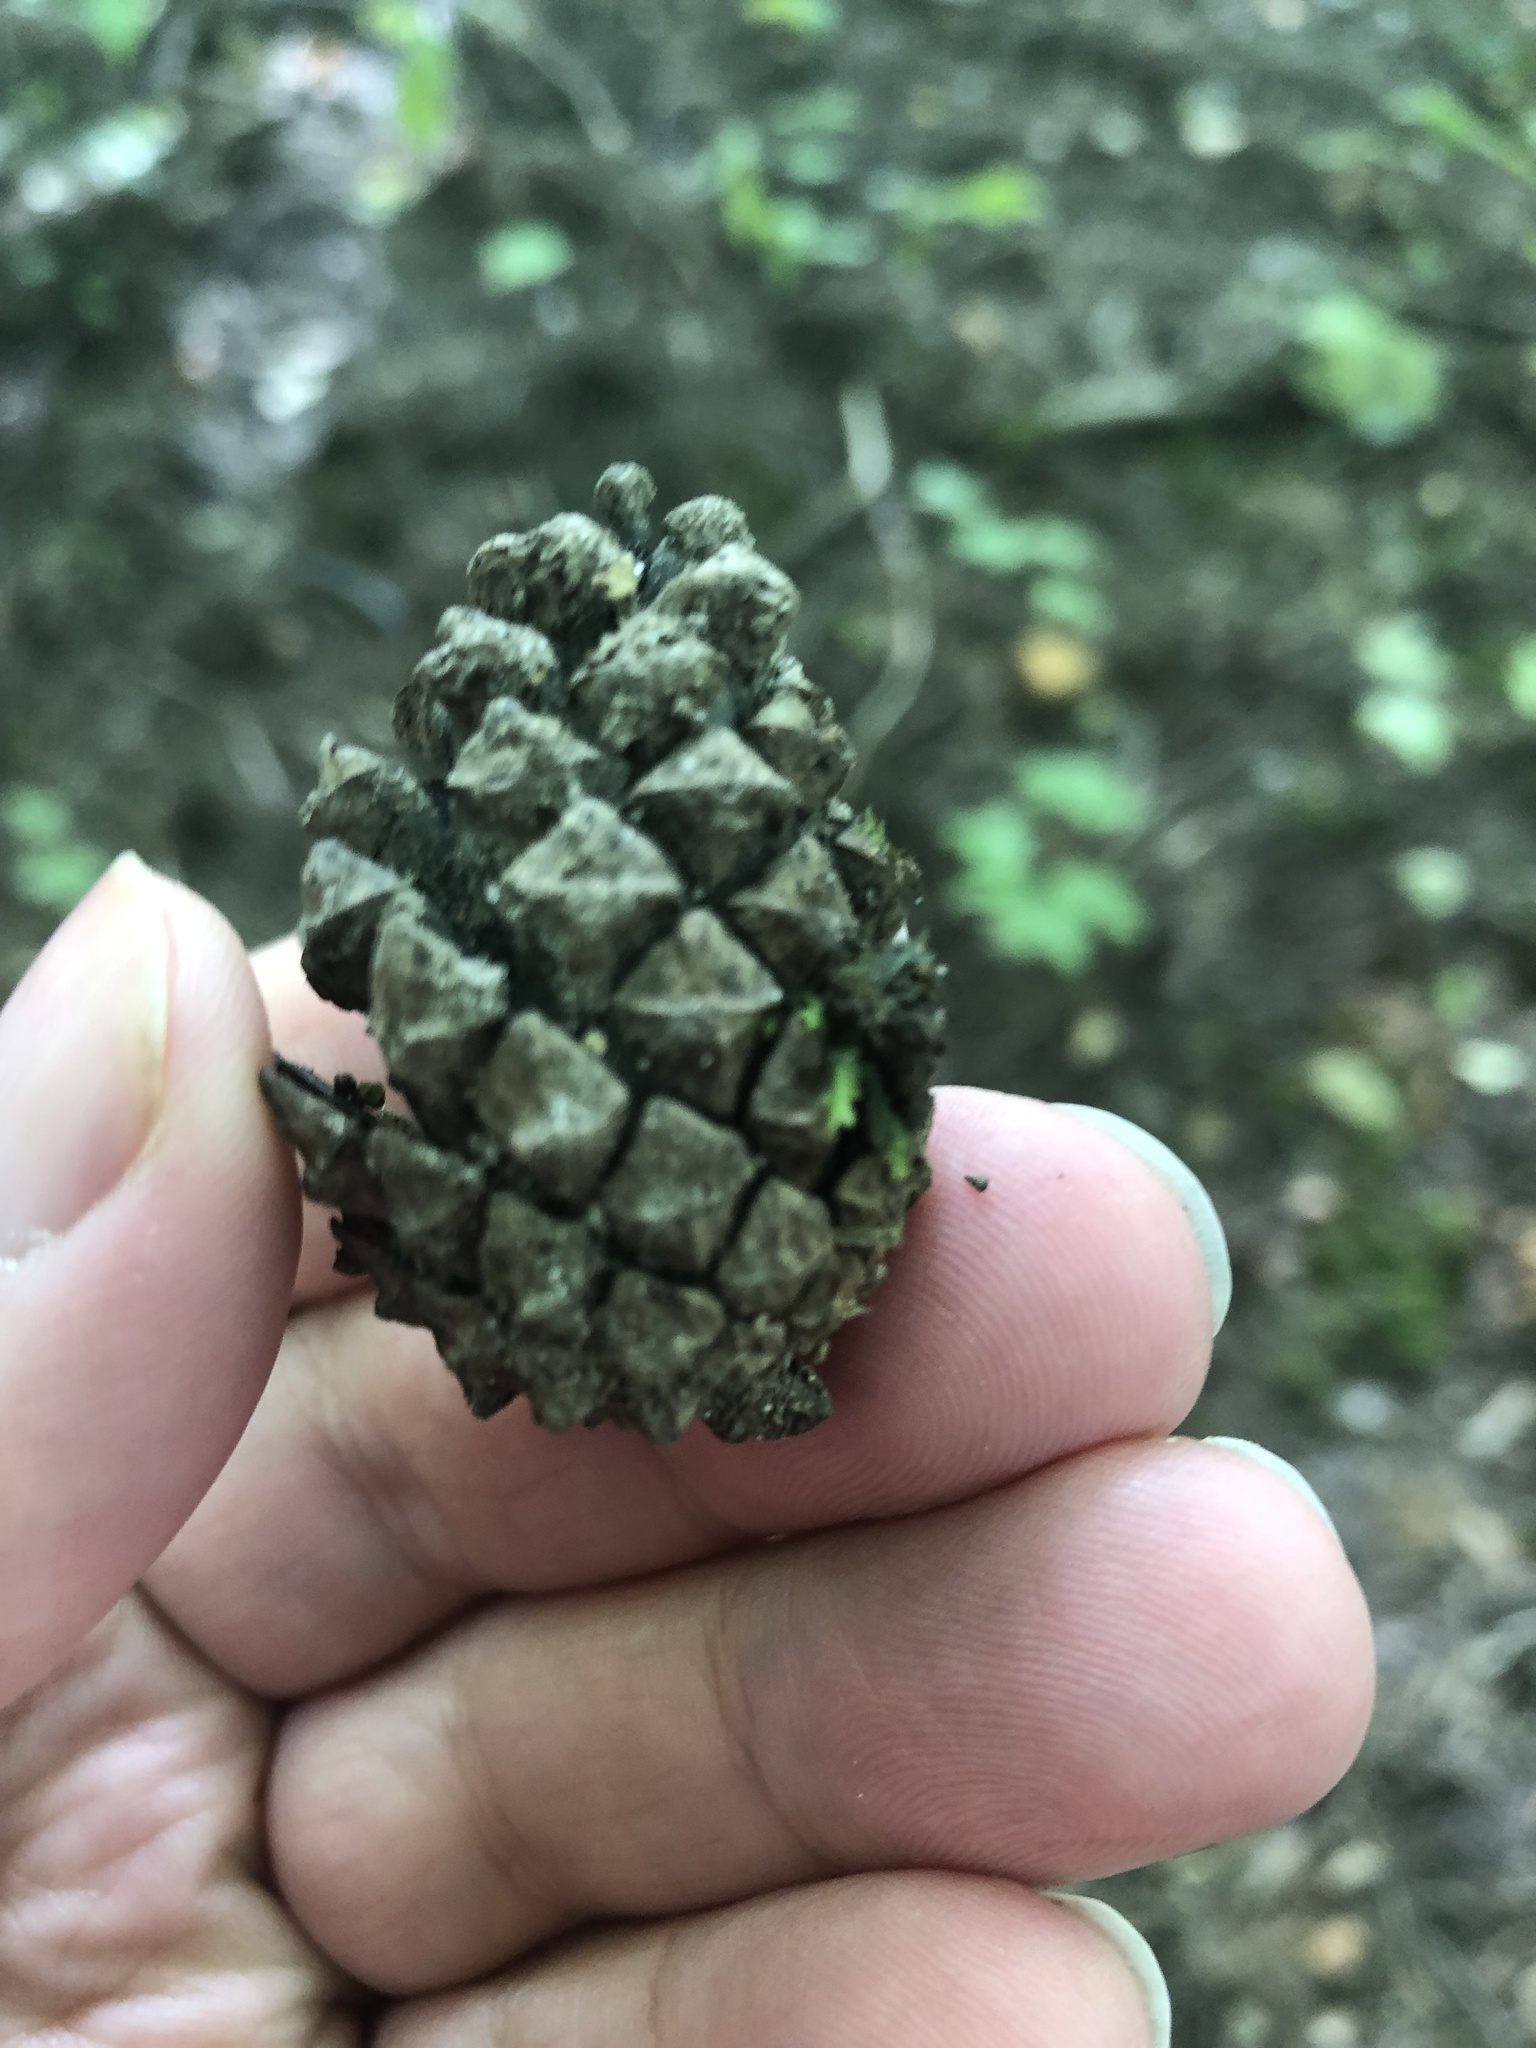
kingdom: Plantae
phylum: Tracheophyta
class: Pinopsida
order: Pinales
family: Pinaceae
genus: Pinus
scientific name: Pinus resinosa
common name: Norway pine
